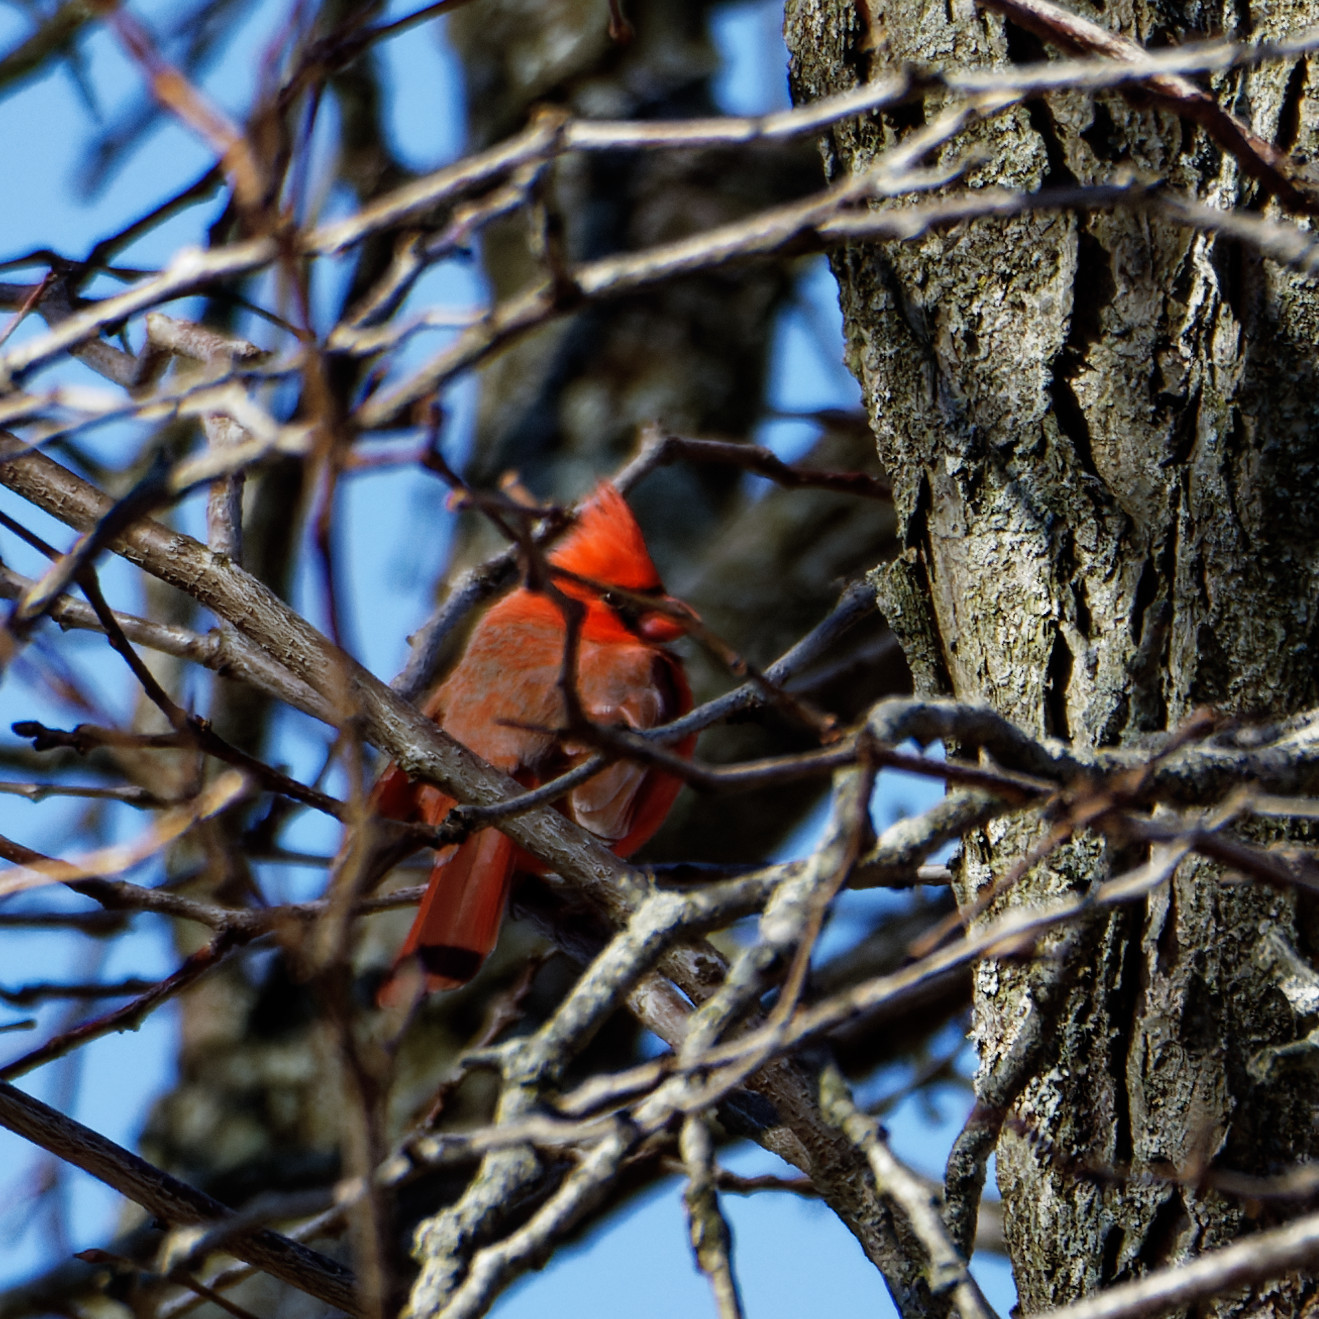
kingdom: Animalia
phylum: Chordata
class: Aves
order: Passeriformes
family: Cardinalidae
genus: Cardinalis
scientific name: Cardinalis cardinalis
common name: Northern cardinal
